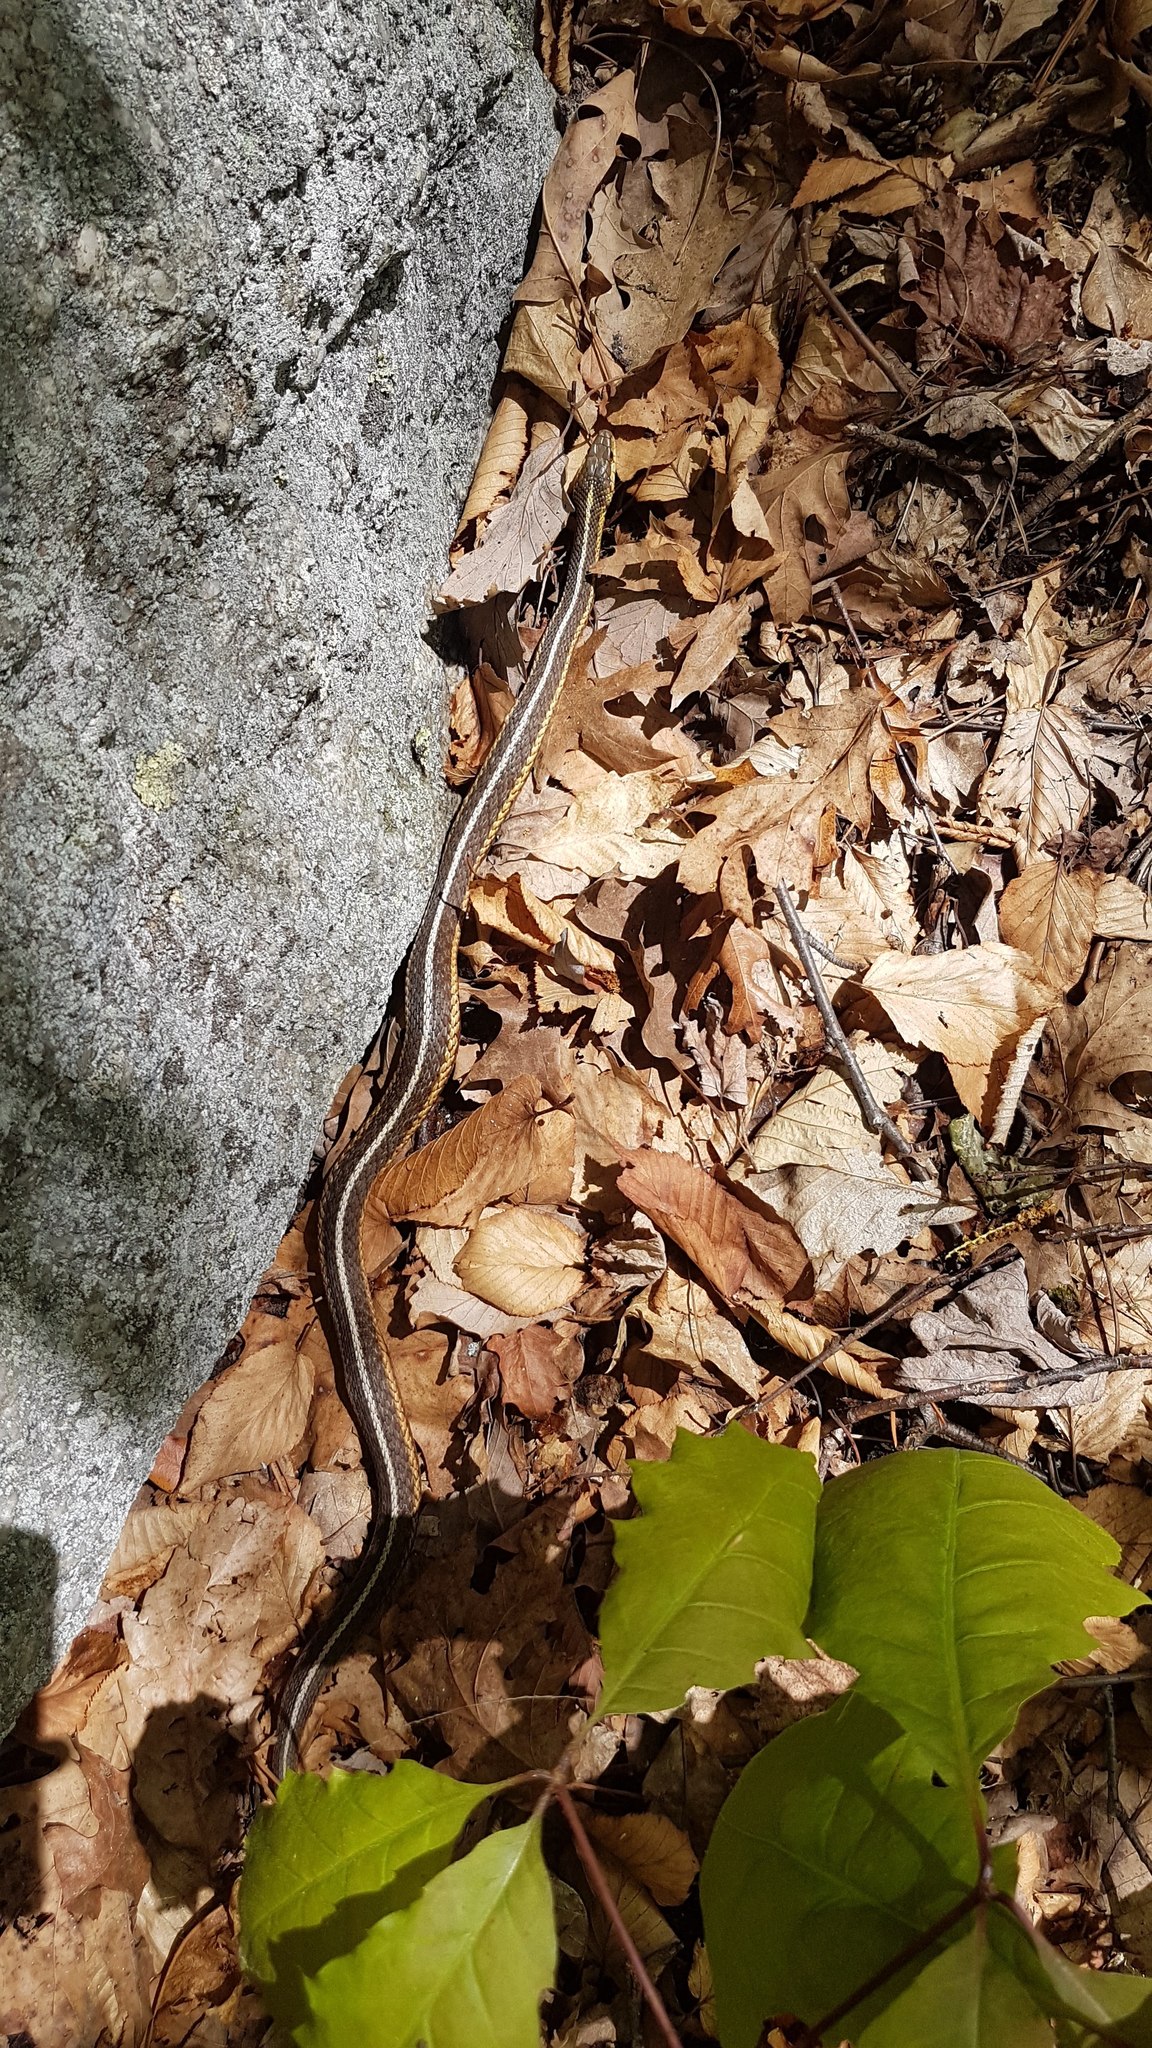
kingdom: Animalia
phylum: Chordata
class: Squamata
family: Colubridae
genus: Thamnophis
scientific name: Thamnophis sirtalis
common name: Common garter snake
